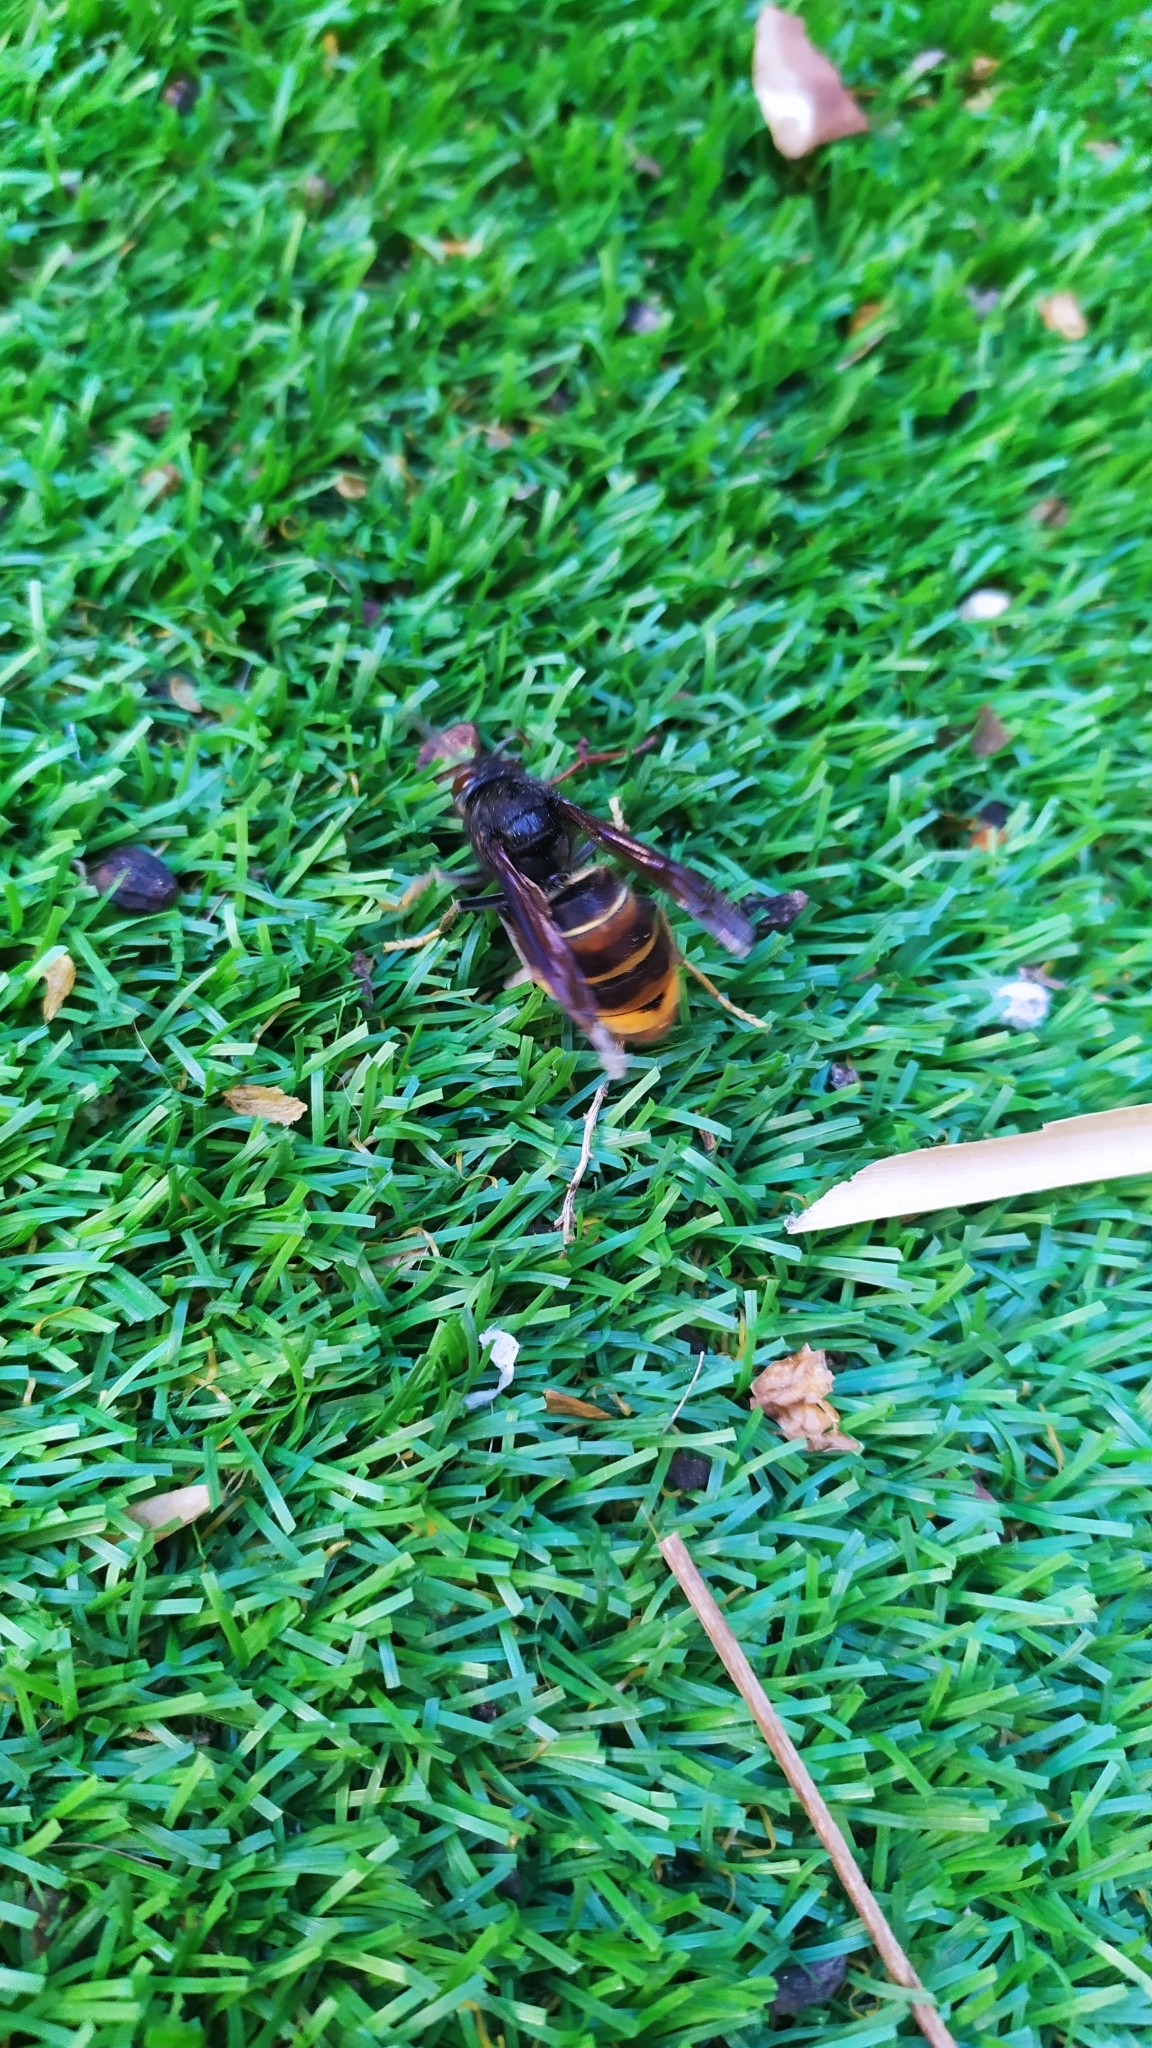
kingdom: Animalia
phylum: Arthropoda
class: Insecta
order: Hymenoptera
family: Vespidae
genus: Vespa
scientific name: Vespa velutina
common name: Asian hornet
